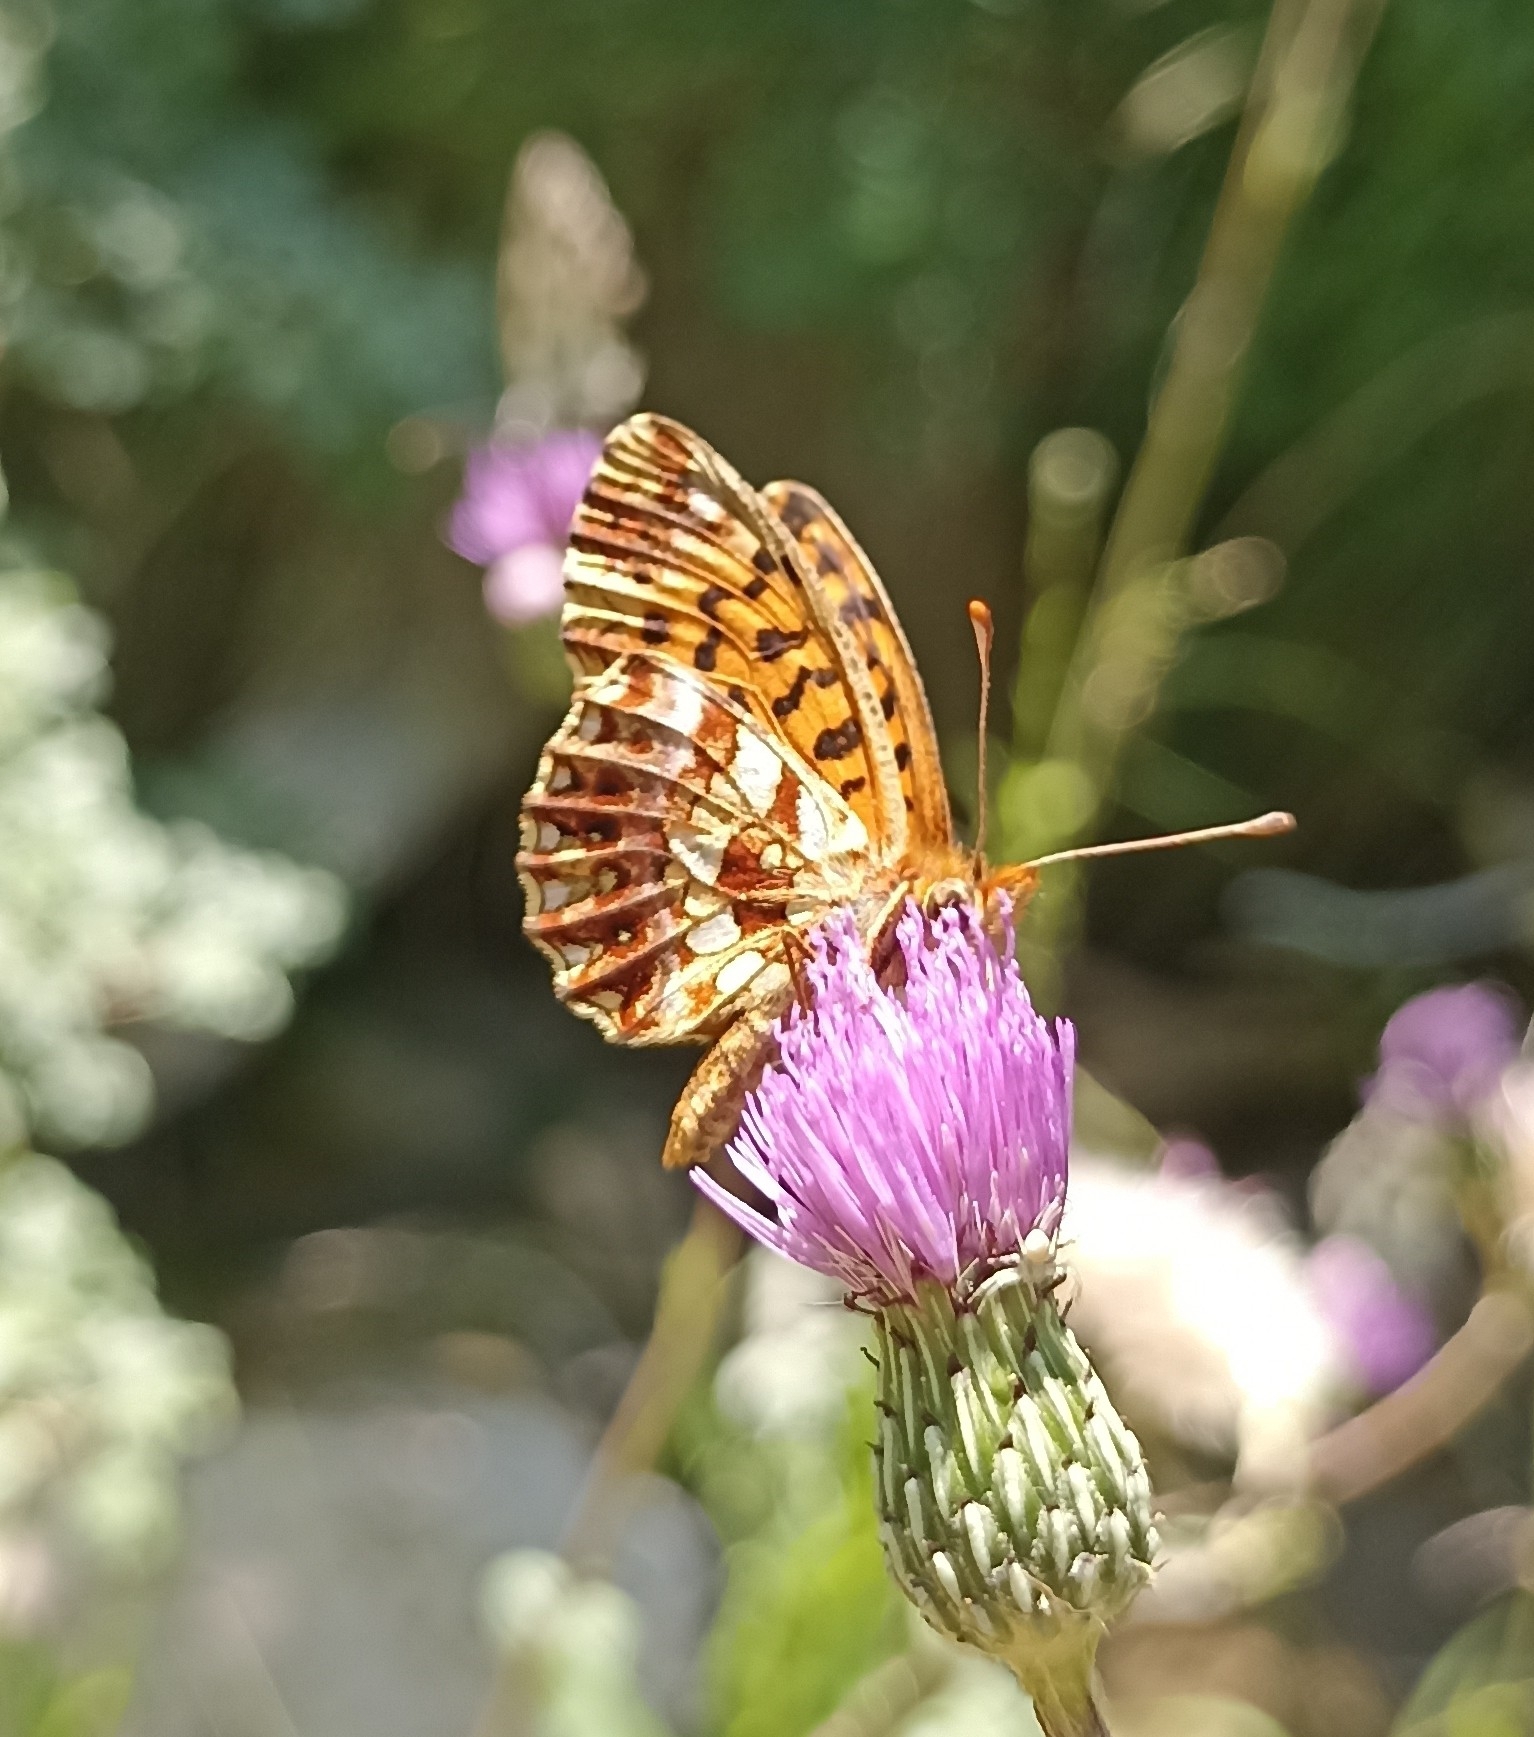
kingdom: Animalia
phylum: Arthropoda
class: Insecta
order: Lepidoptera
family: Nymphalidae
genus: Boloria
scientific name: Boloria dia
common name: Weaver's fritillary
